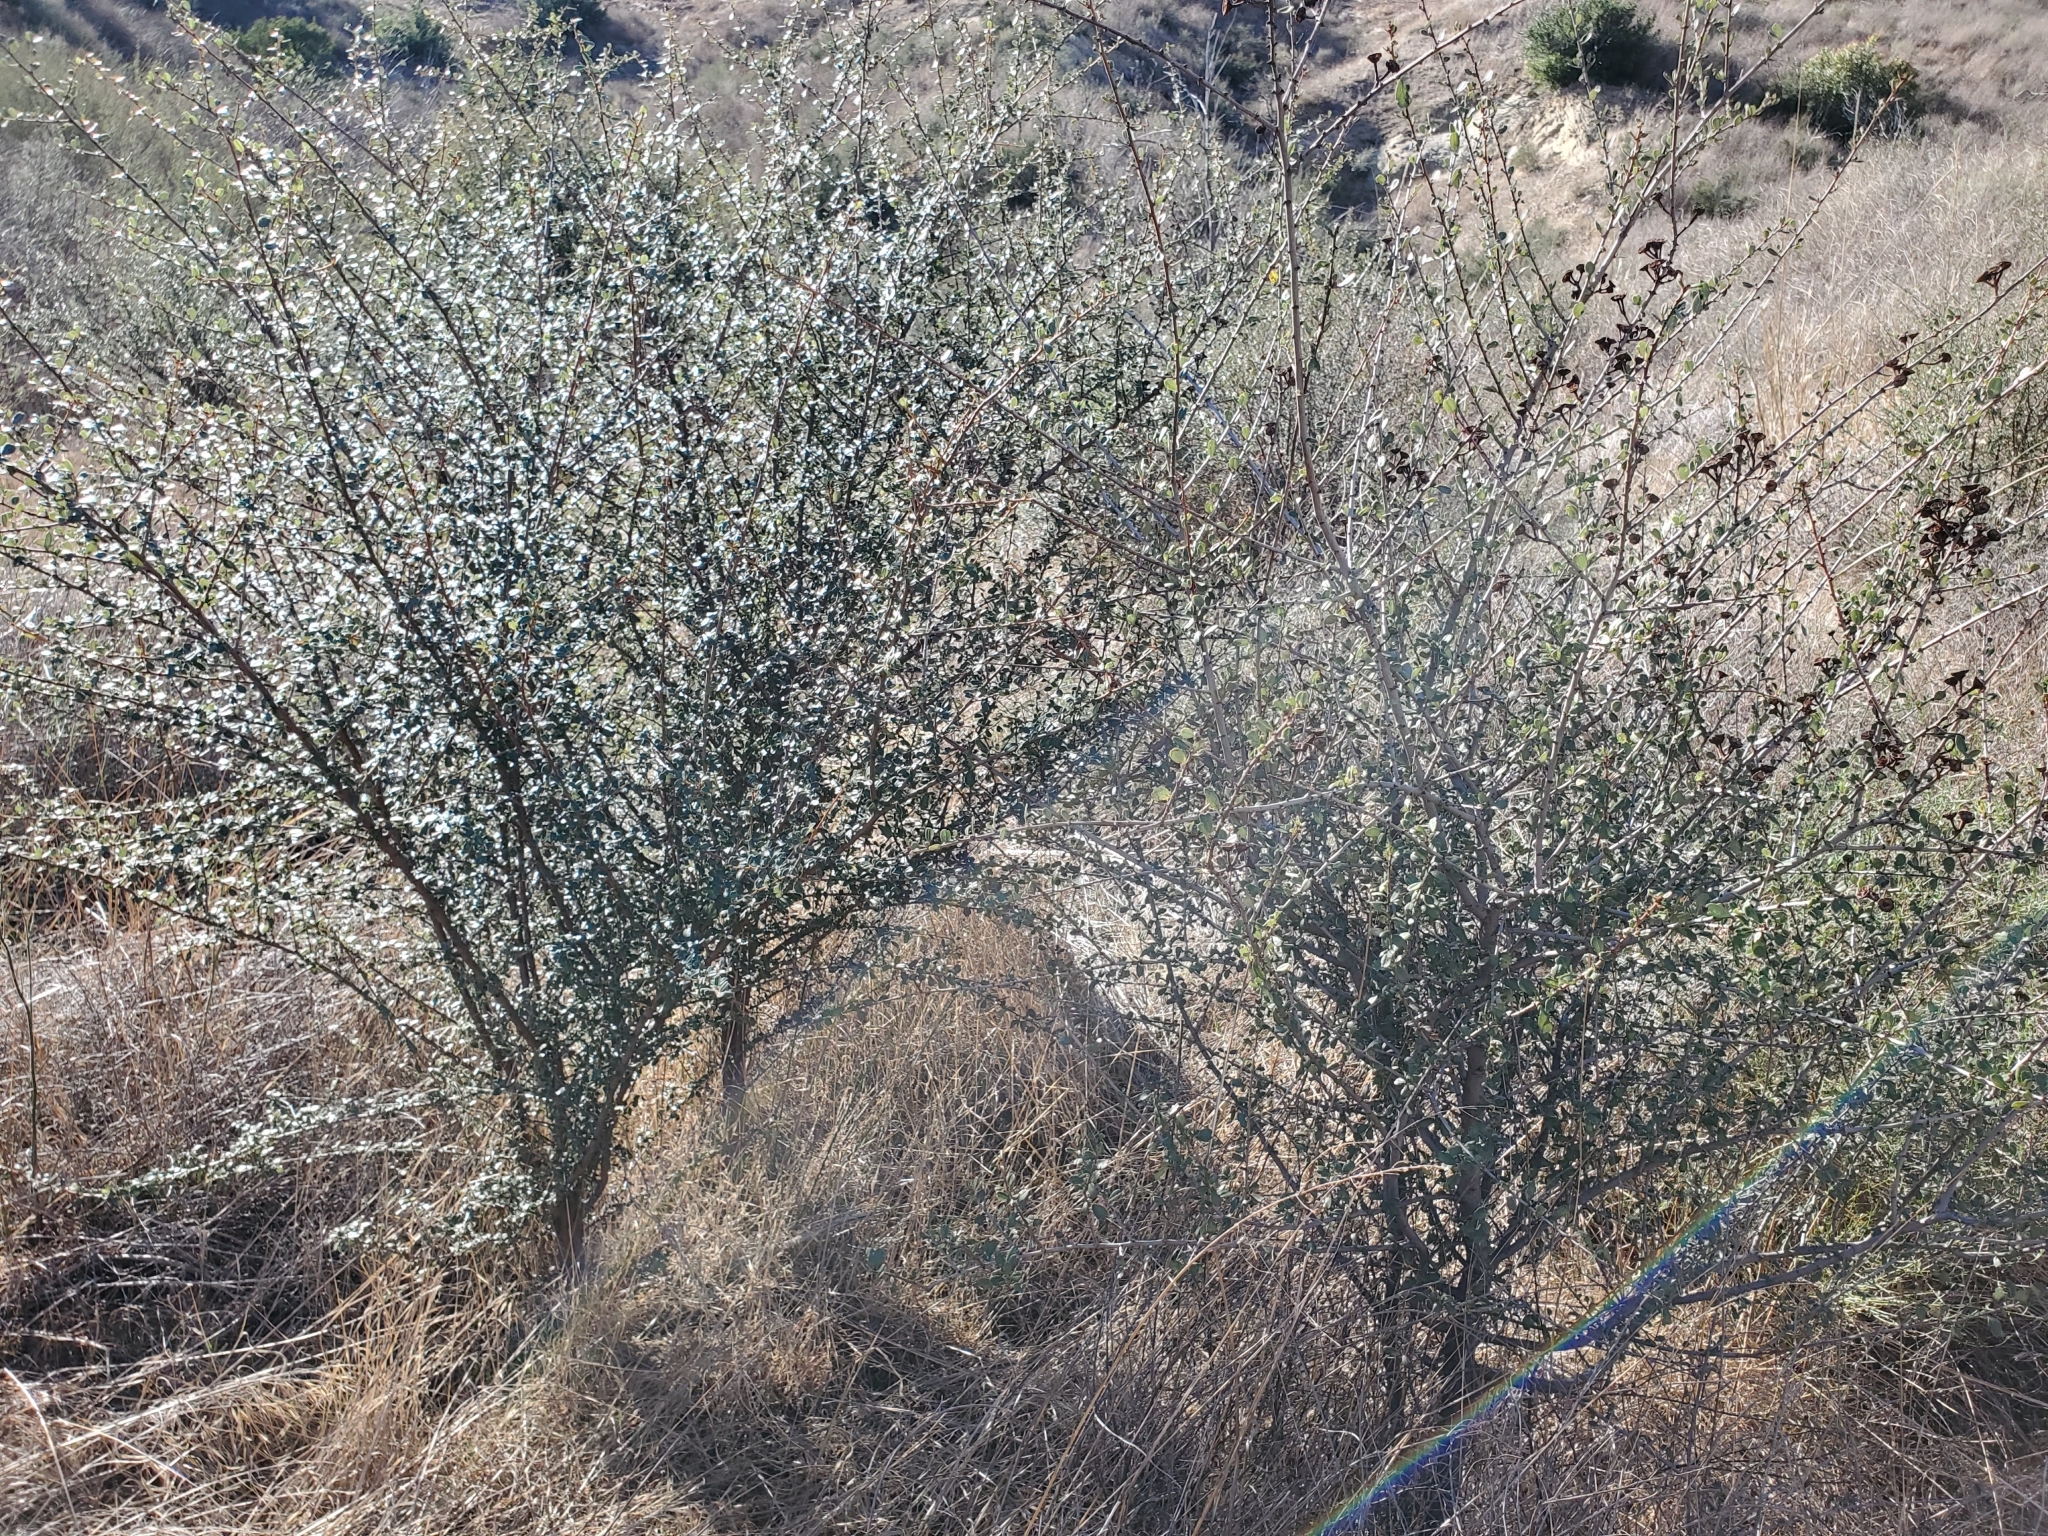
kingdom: Plantae
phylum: Tracheophyta
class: Magnoliopsida
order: Rosales
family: Rhamnaceae
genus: Ceanothus
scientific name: Ceanothus megacarpus
